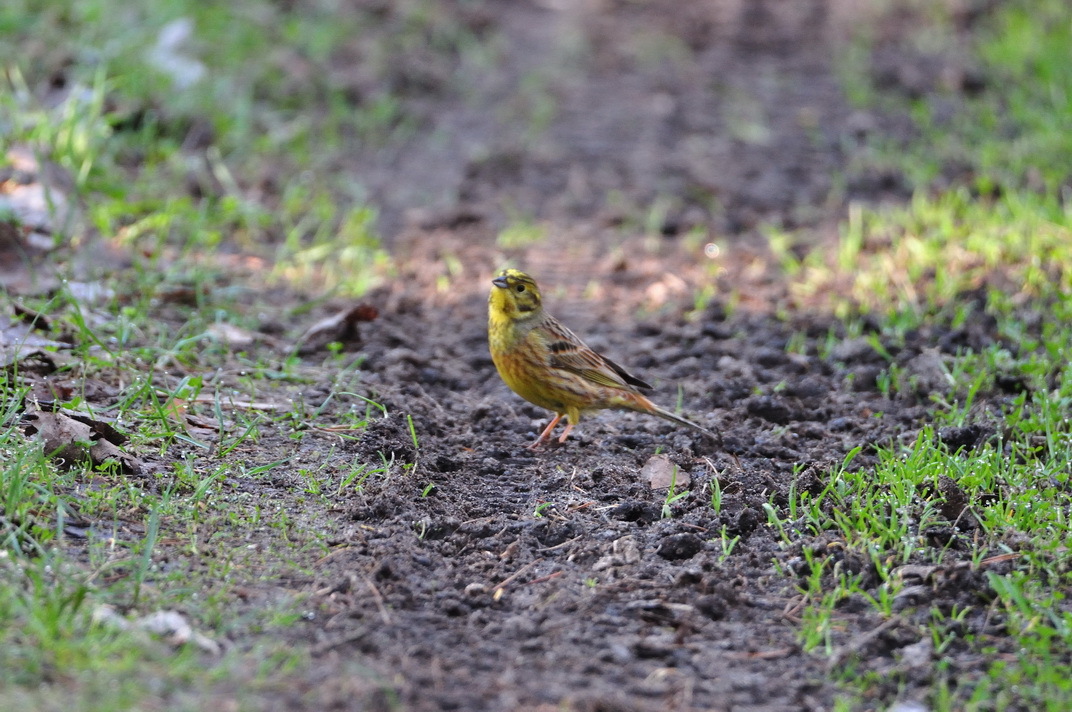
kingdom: Animalia
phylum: Chordata
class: Aves
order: Passeriformes
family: Emberizidae
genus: Emberiza
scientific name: Emberiza citrinella
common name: Yellowhammer
